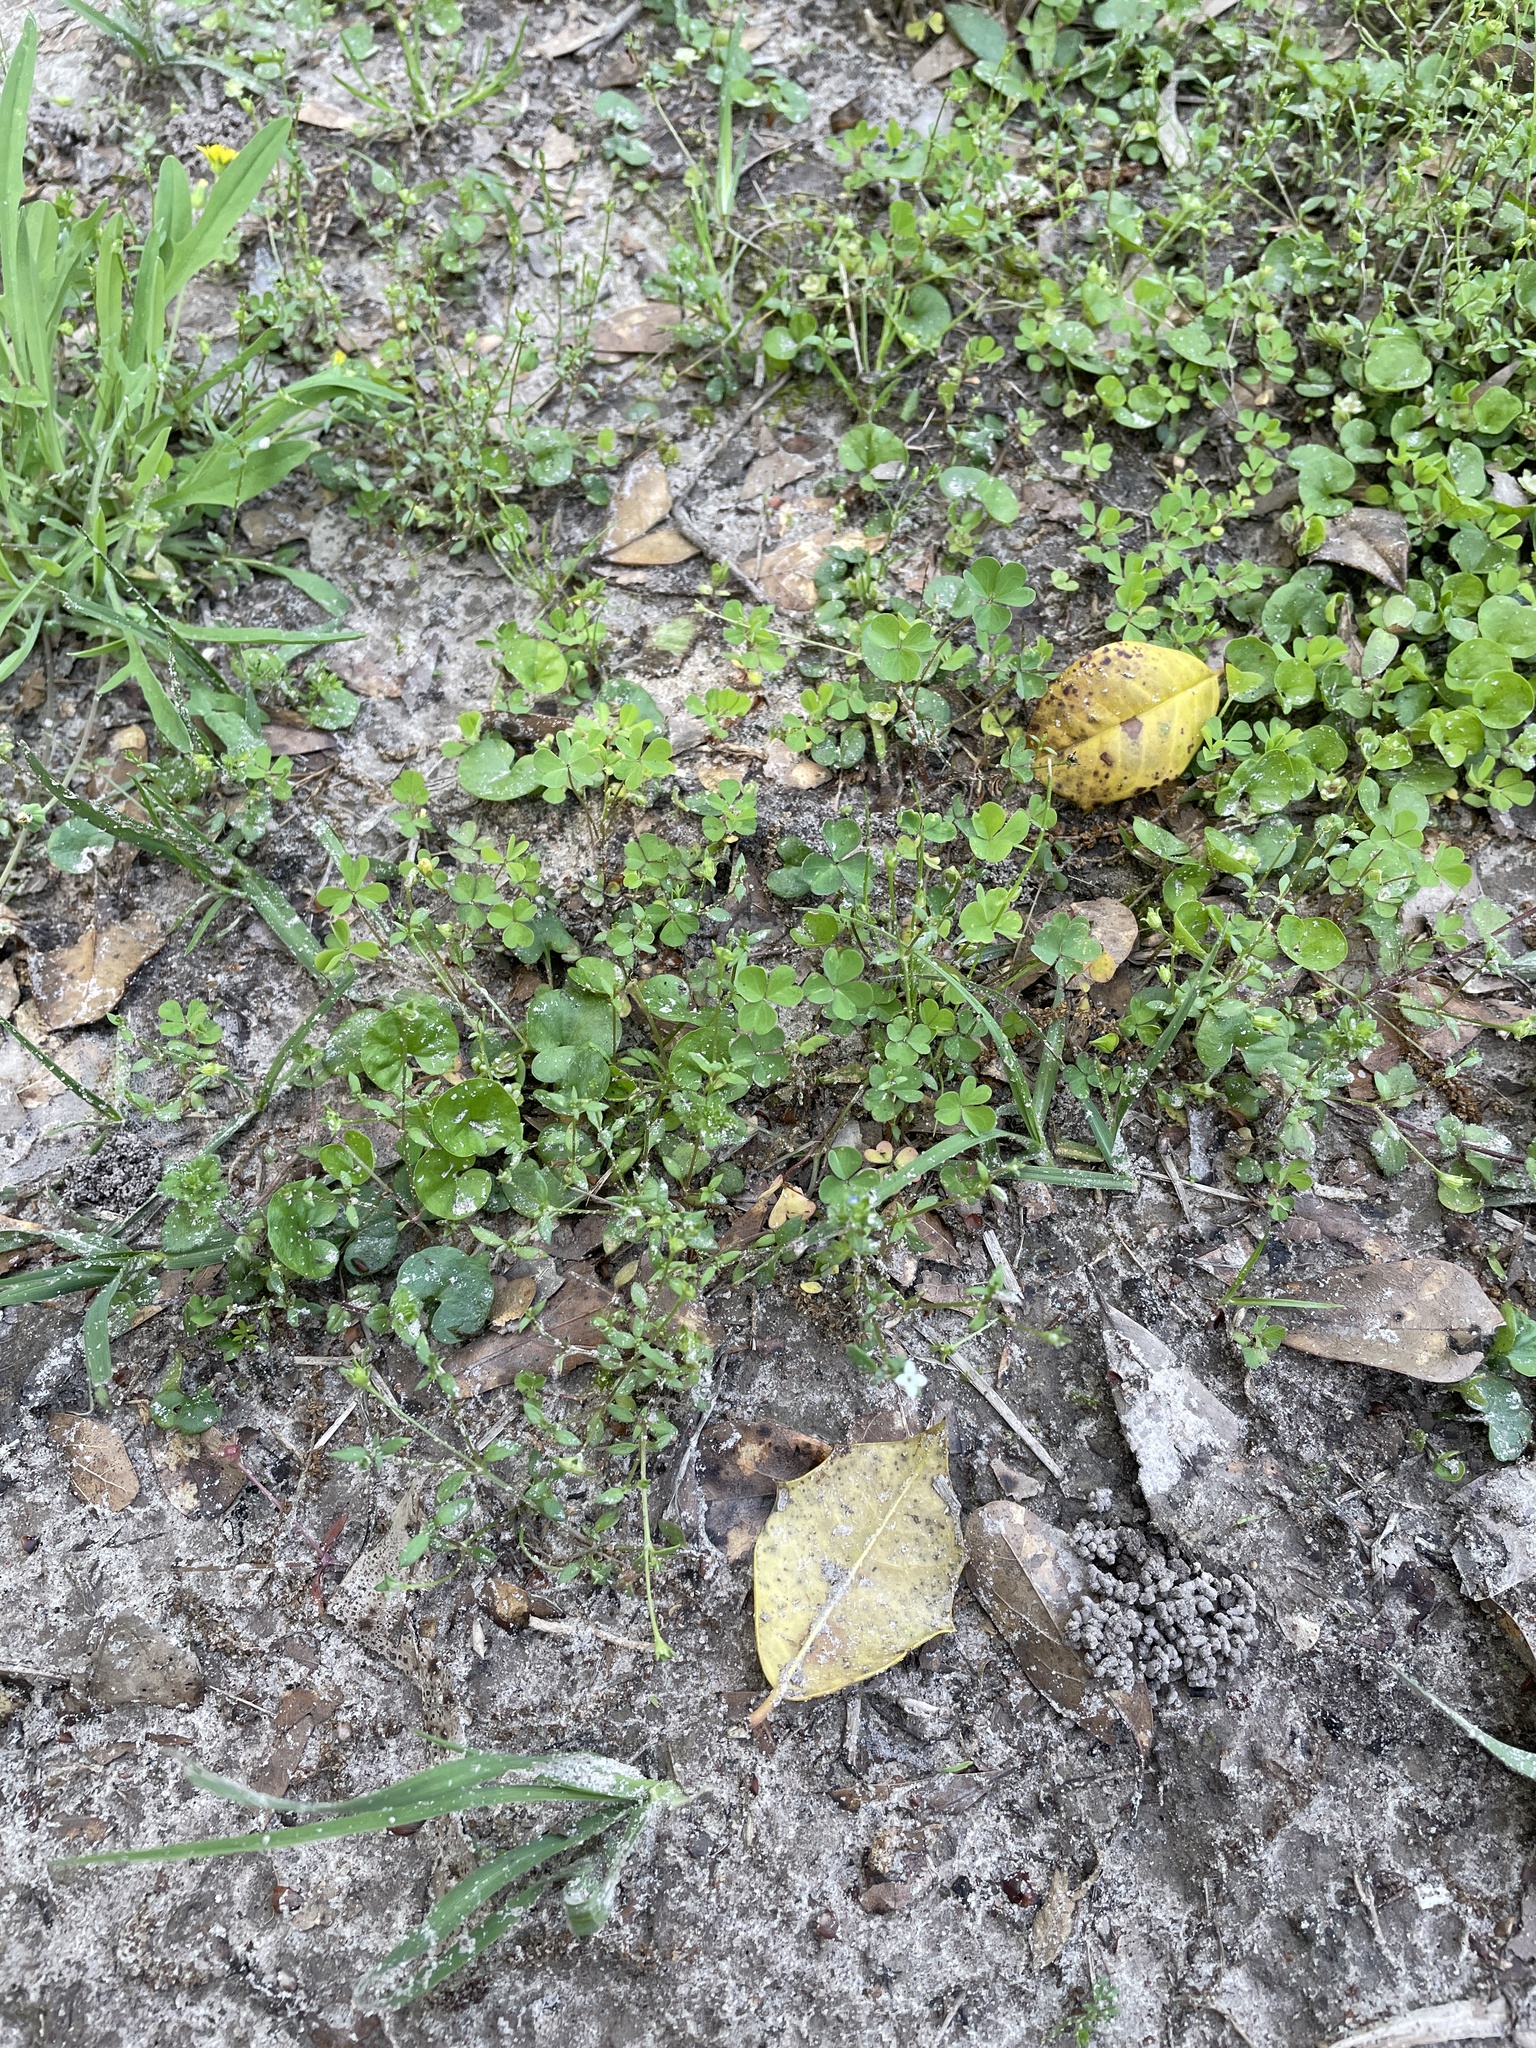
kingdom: Plantae
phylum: Tracheophyta
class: Magnoliopsida
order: Gentianales
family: Rubiaceae
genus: Houstonia
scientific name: Houstonia micrantha
